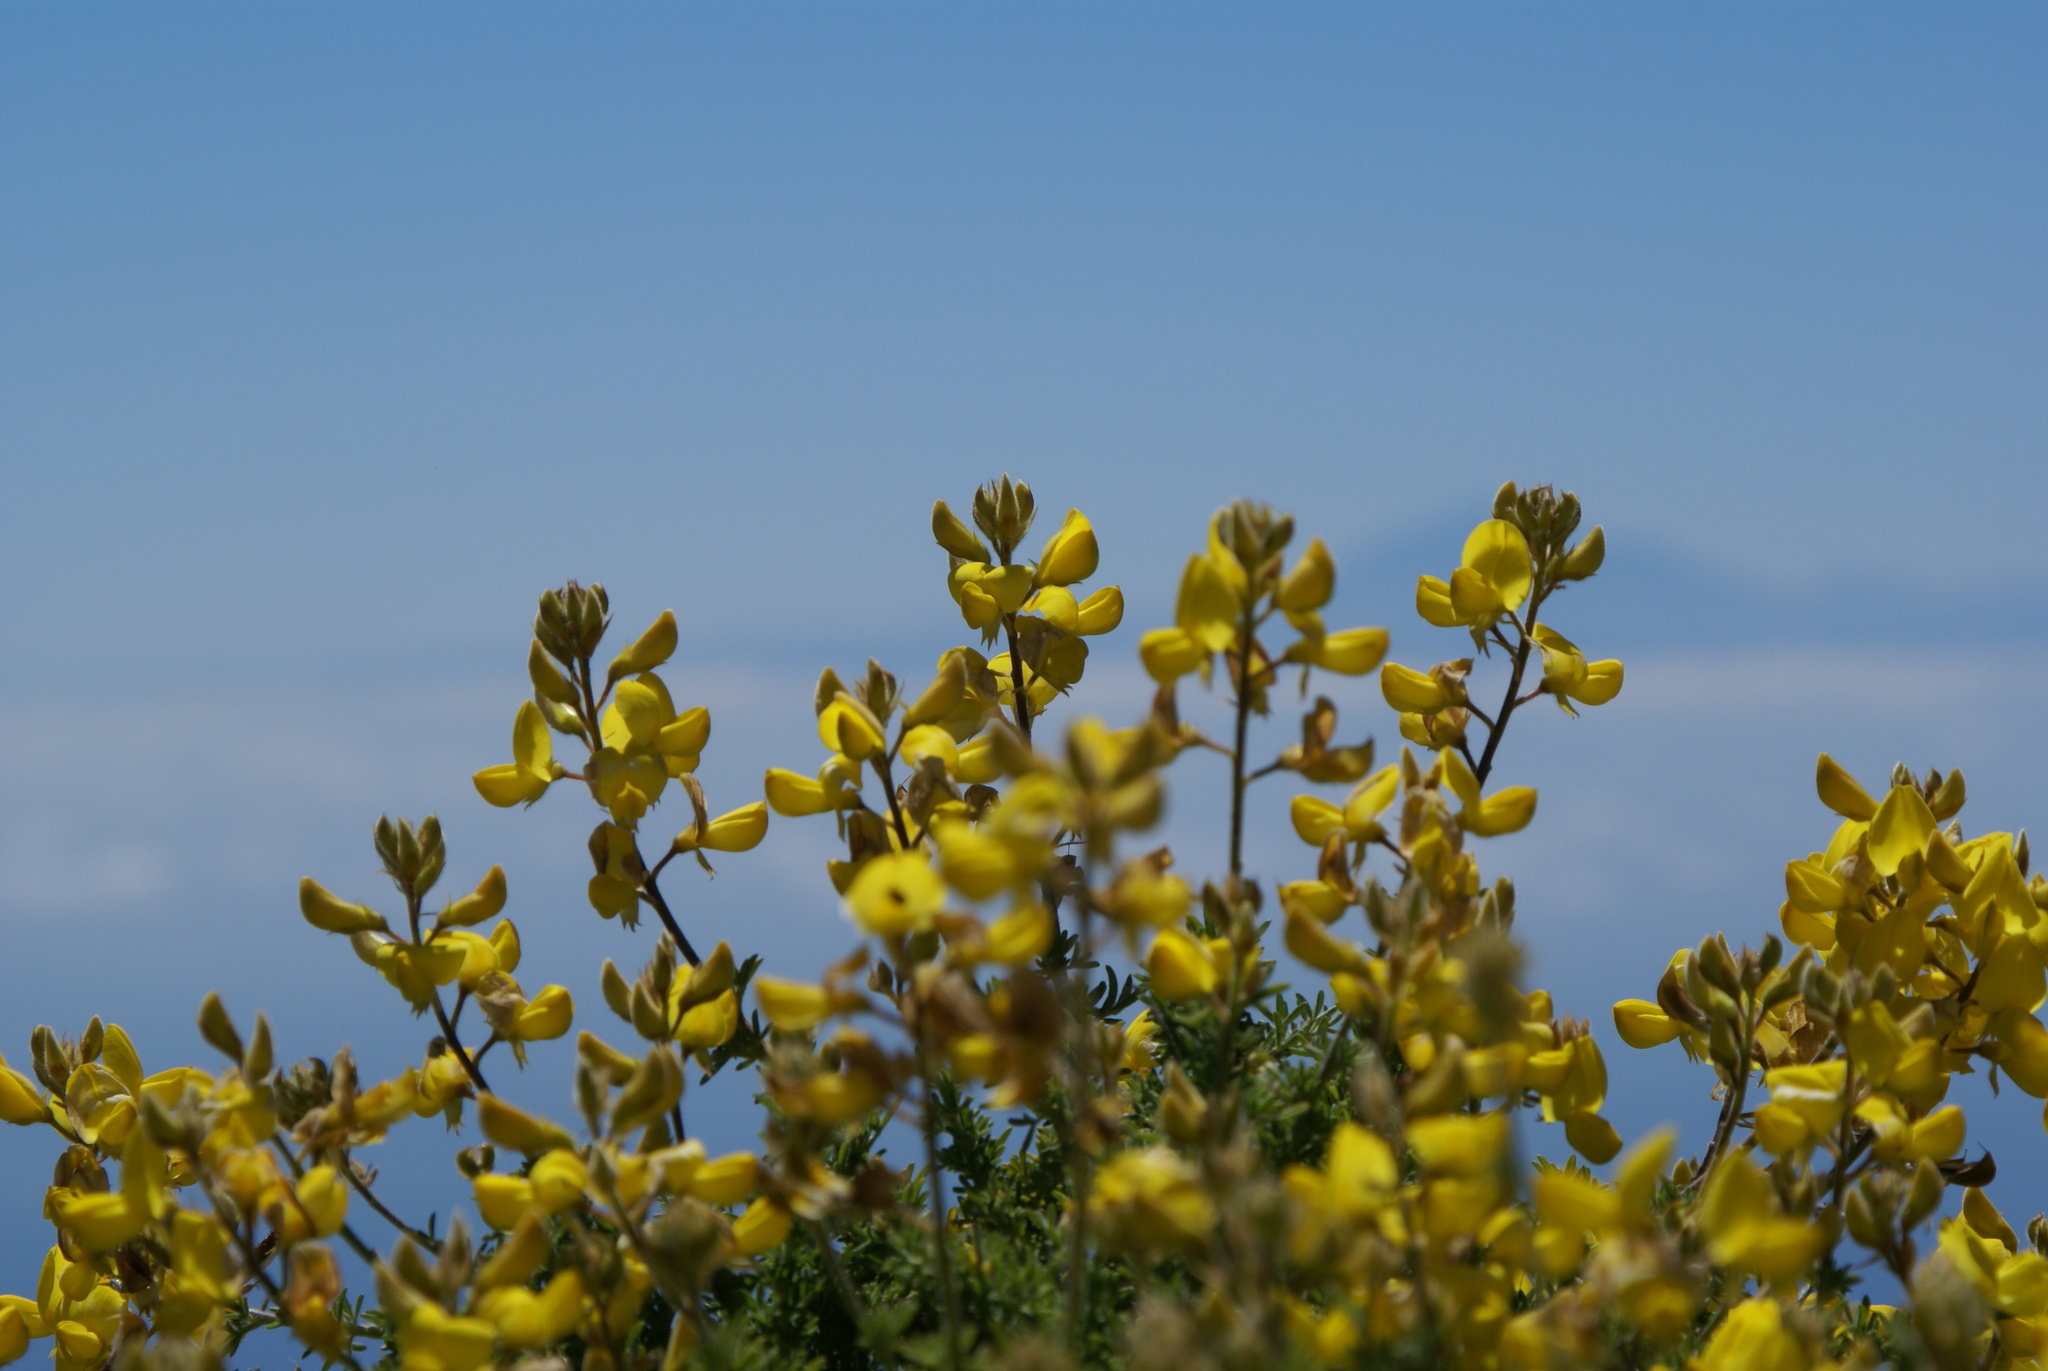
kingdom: Plantae
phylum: Tracheophyta
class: Magnoliopsida
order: Fabales
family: Fabaceae
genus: Adenocarpus
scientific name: Adenocarpus foliolosus
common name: Canary island flatpod
